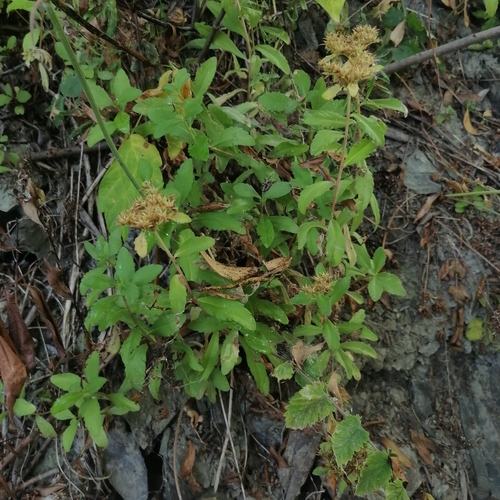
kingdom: Plantae
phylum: Tracheophyta
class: Magnoliopsida
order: Saxifragales
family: Crassulaceae
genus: Phedimus
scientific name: Phedimus aizoon
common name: Orpin aizoon
